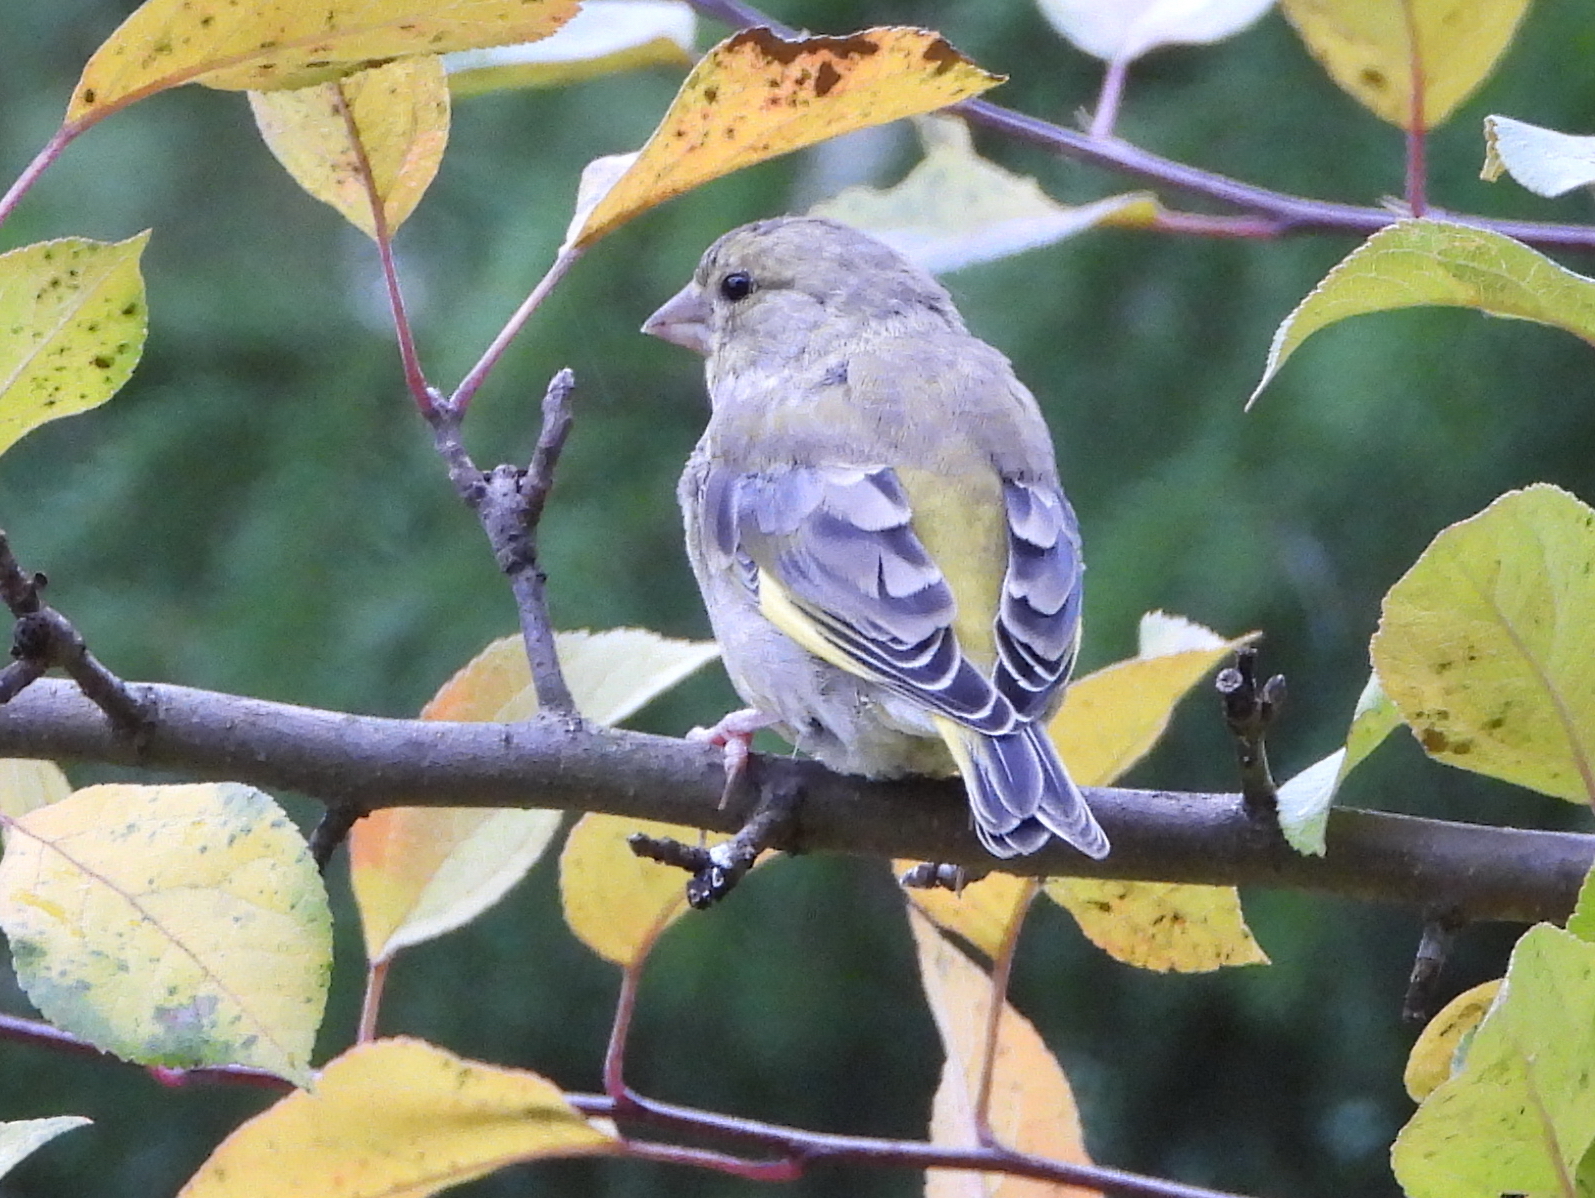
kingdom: Plantae
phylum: Tracheophyta
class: Liliopsida
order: Poales
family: Poaceae
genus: Chloris
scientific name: Chloris chloris
